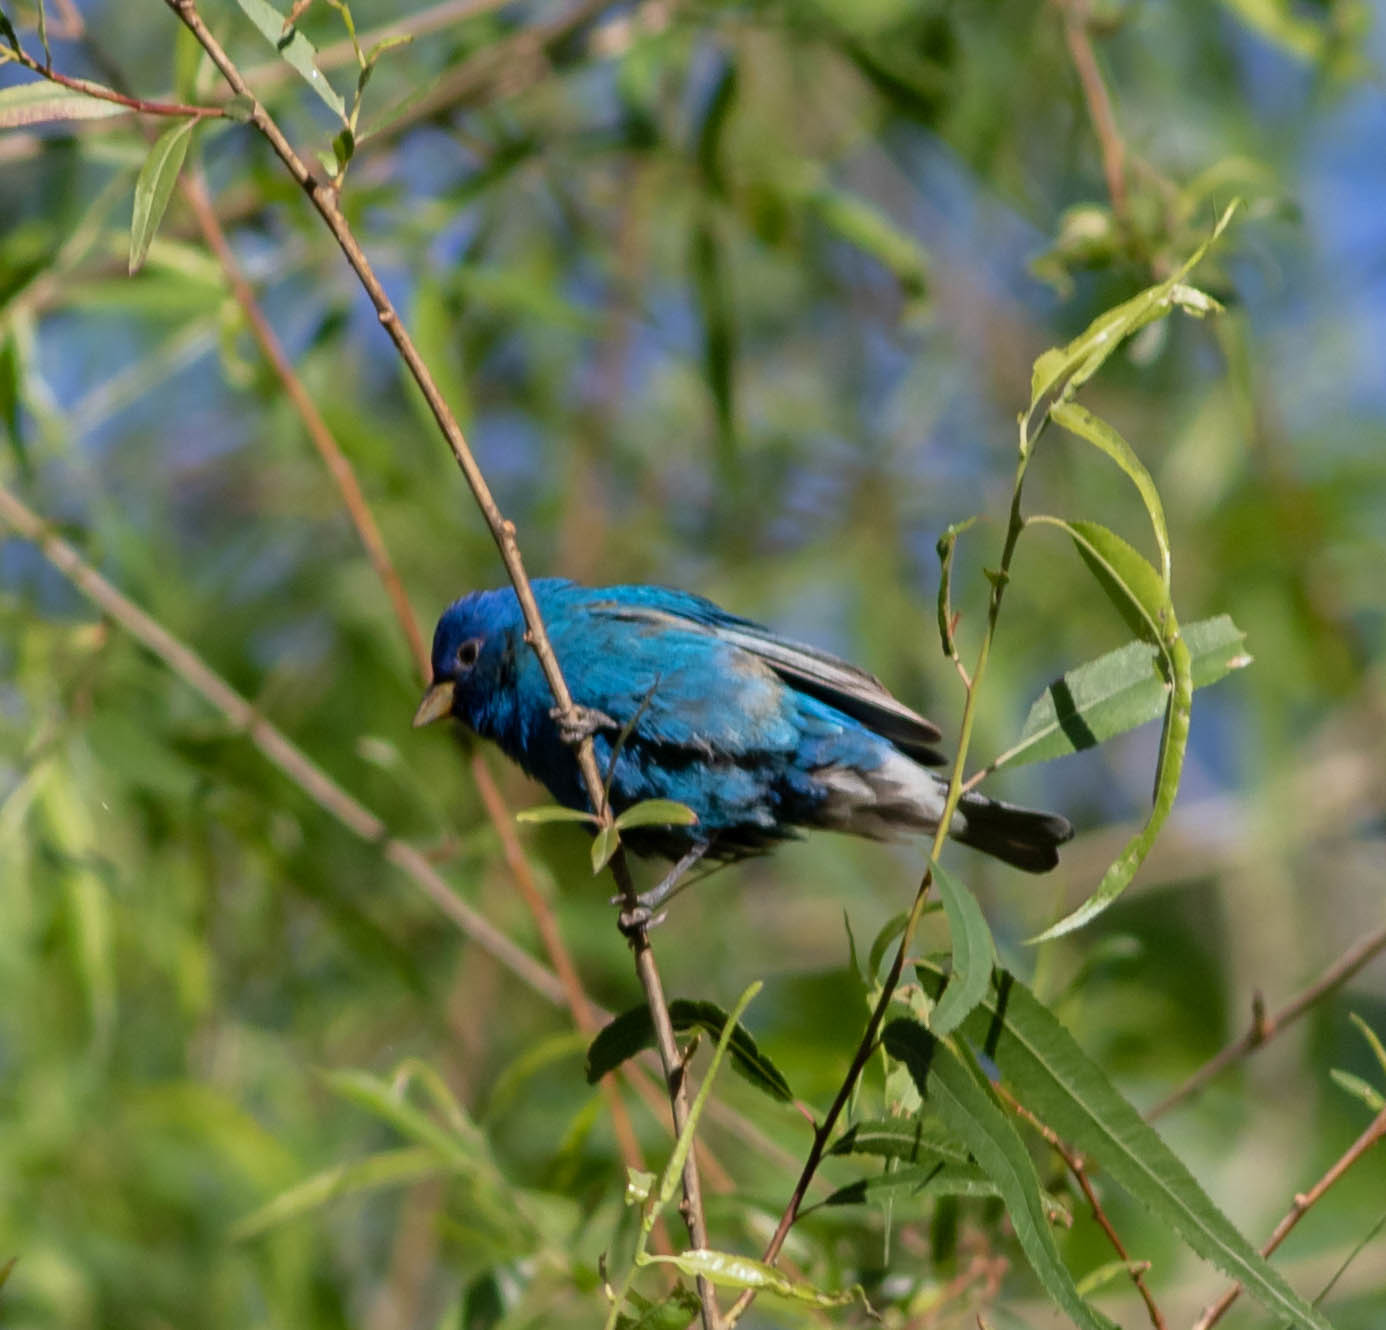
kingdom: Animalia
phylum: Chordata
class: Aves
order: Passeriformes
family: Cardinalidae
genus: Passerina
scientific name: Passerina cyanea
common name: Indigo bunting
